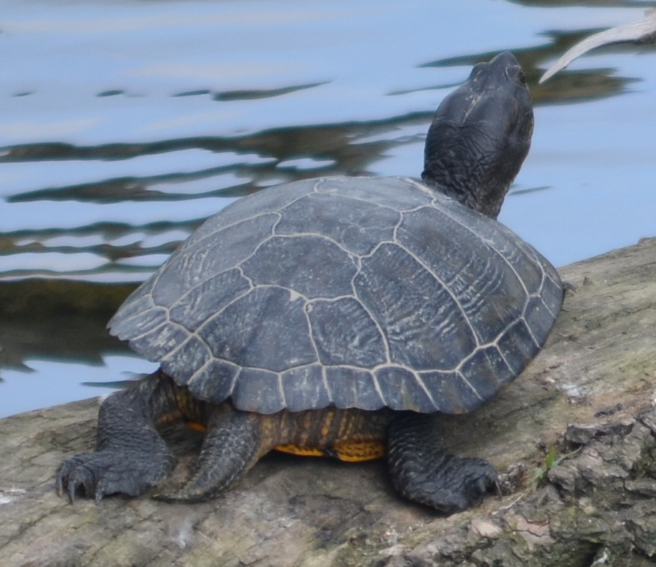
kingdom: Animalia
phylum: Chordata
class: Testudines
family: Emydidae
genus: Trachemys
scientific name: Trachemys scripta
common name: Slider
